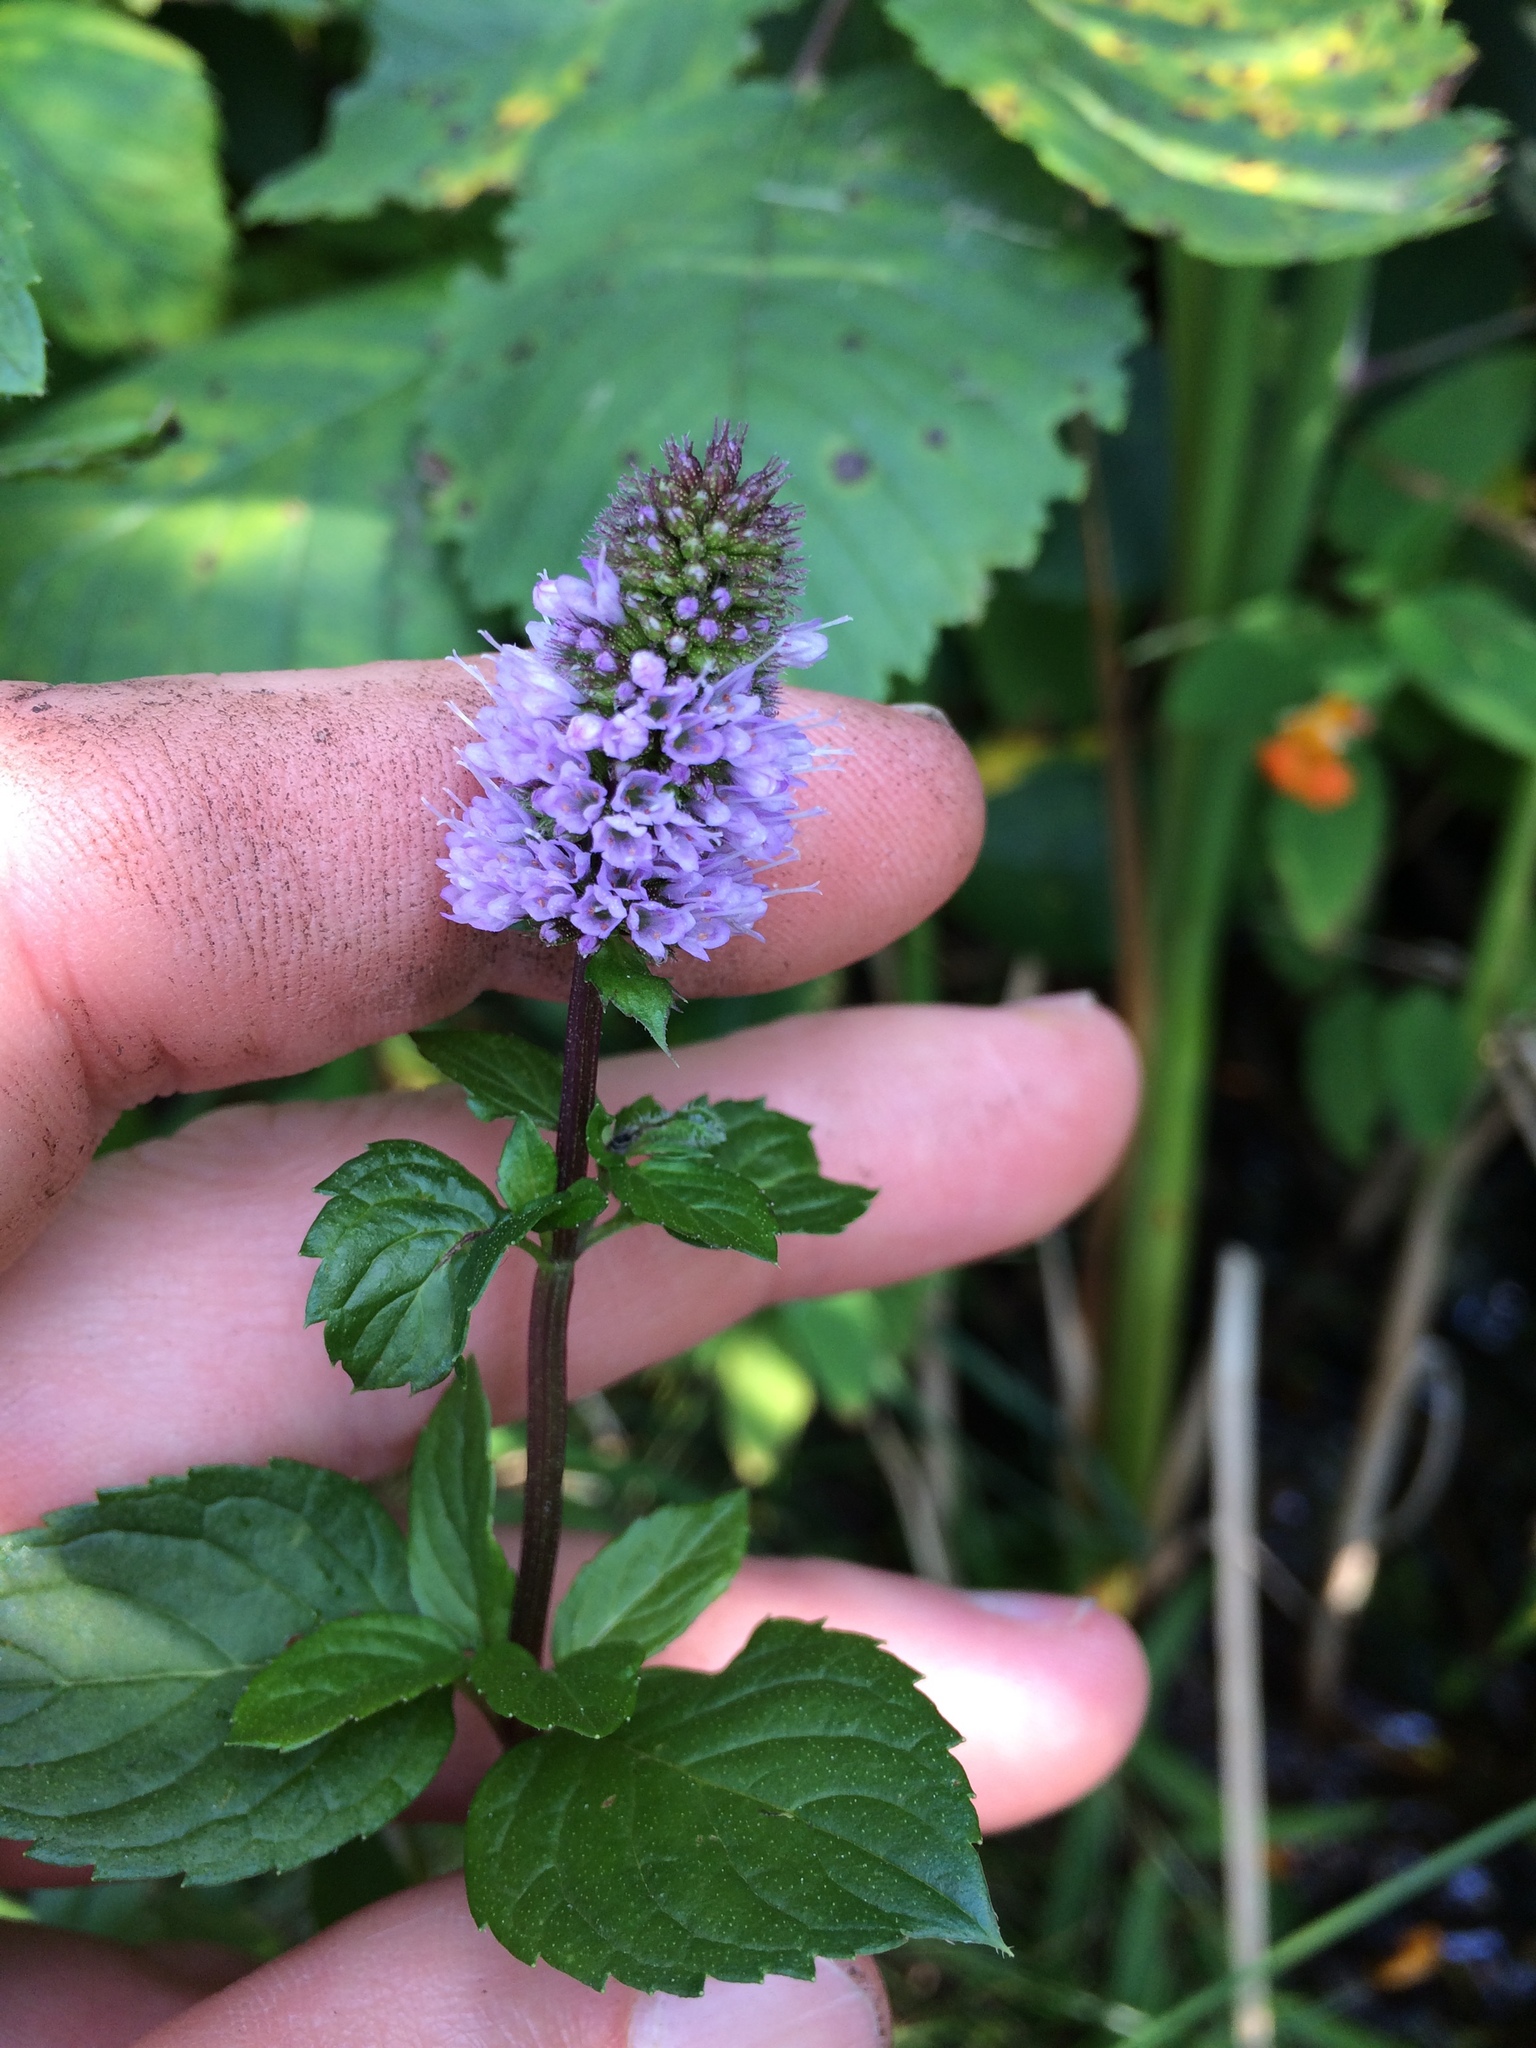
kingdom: Plantae
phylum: Tracheophyta
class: Magnoliopsida
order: Lamiales
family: Lamiaceae
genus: Mentha
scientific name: Mentha piperita
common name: Peppermint
